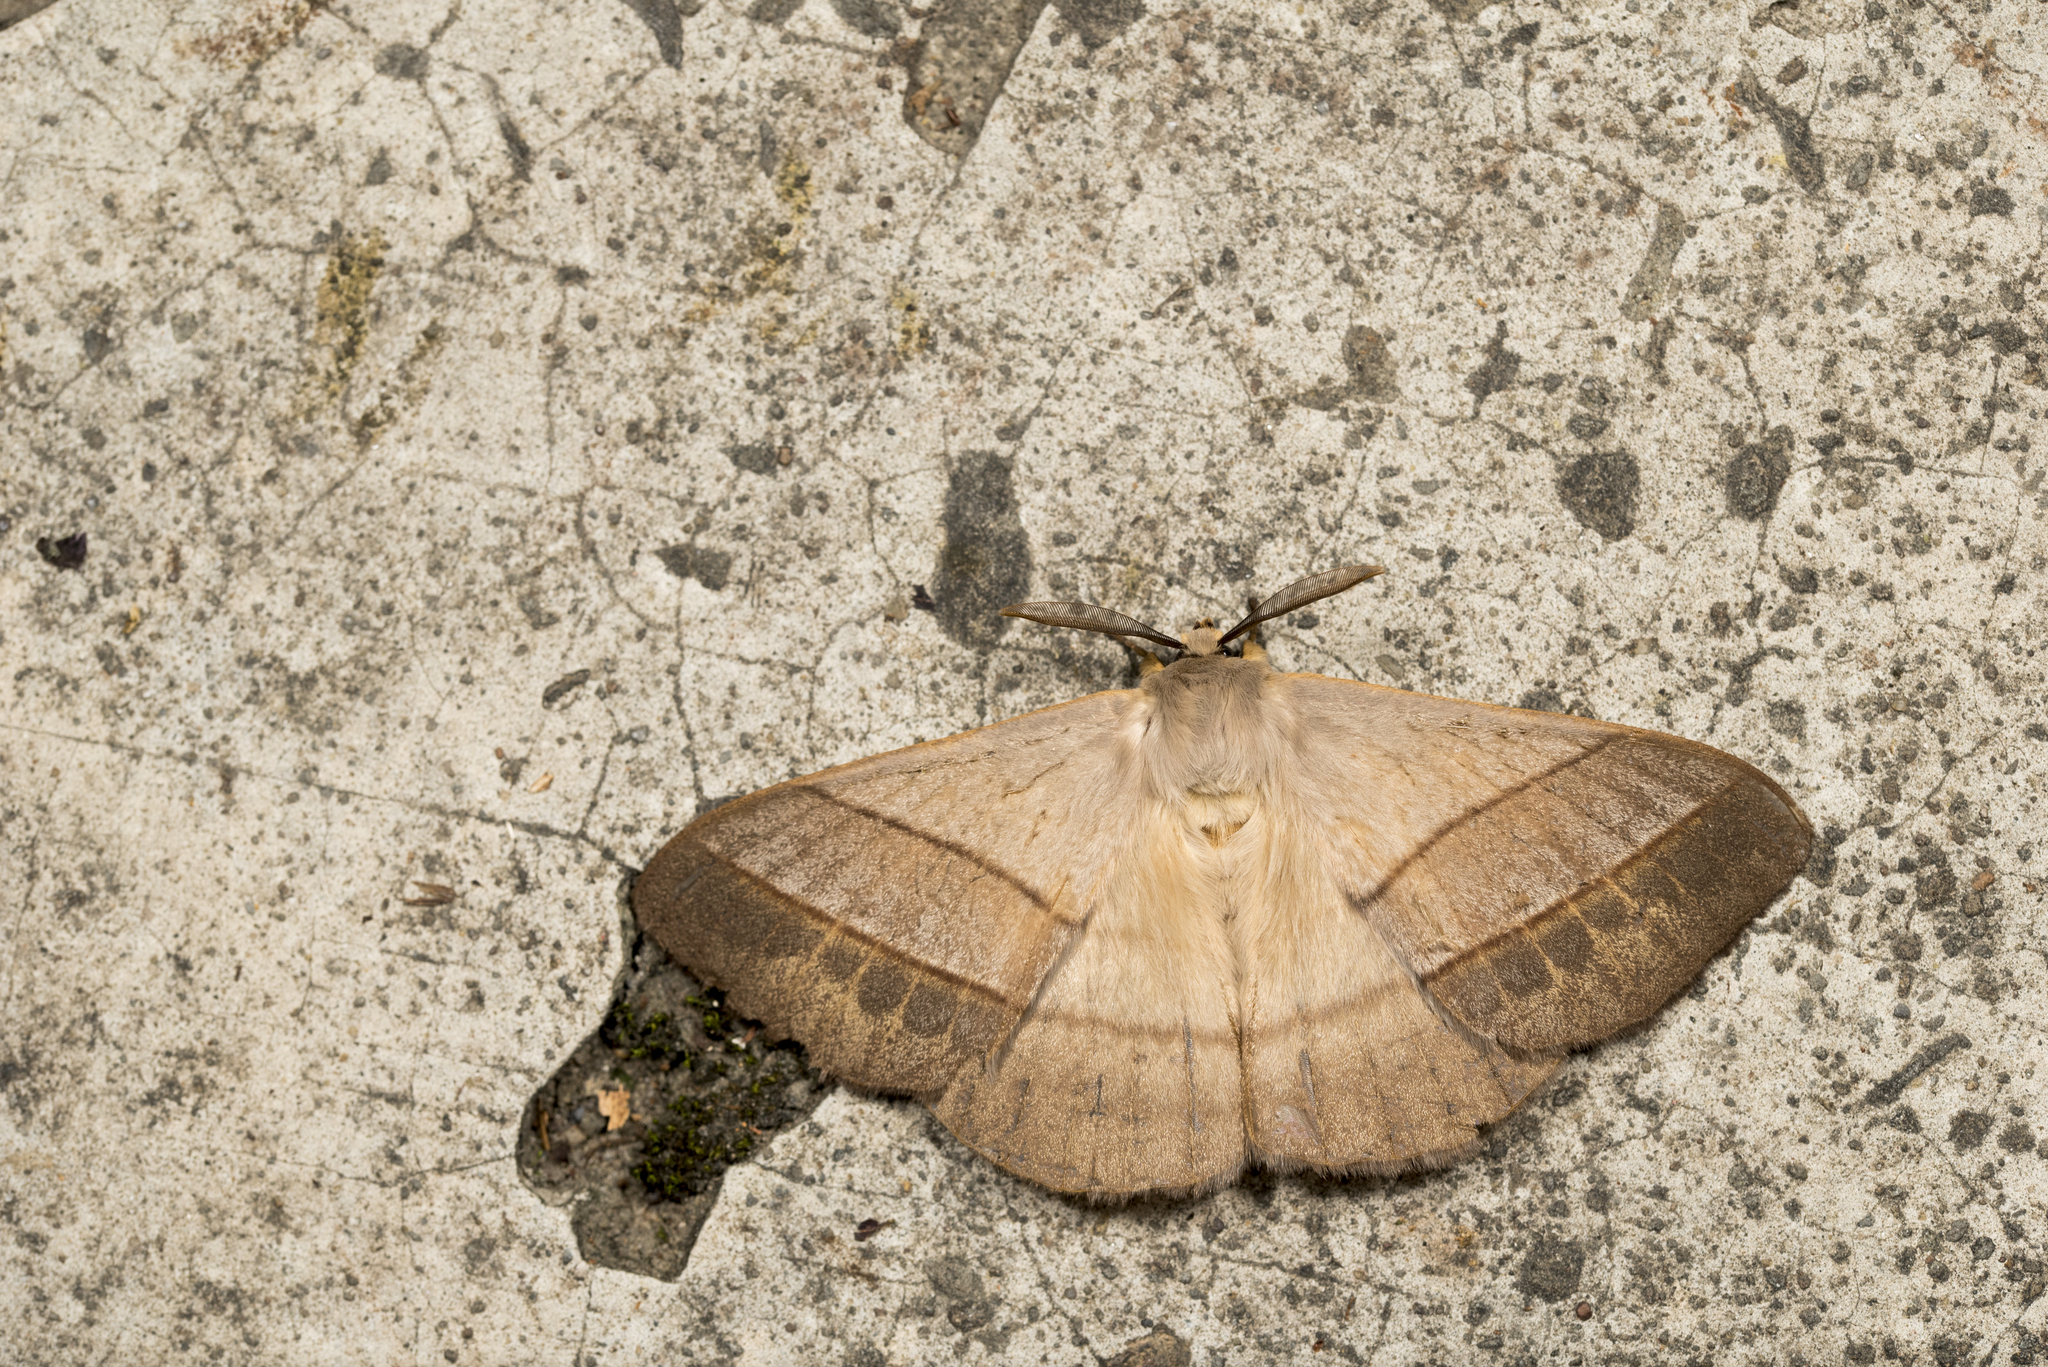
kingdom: Animalia
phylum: Arthropoda
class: Insecta
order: Lepidoptera
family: Eupterotidae
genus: Palirisa
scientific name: Palirisa cervina
